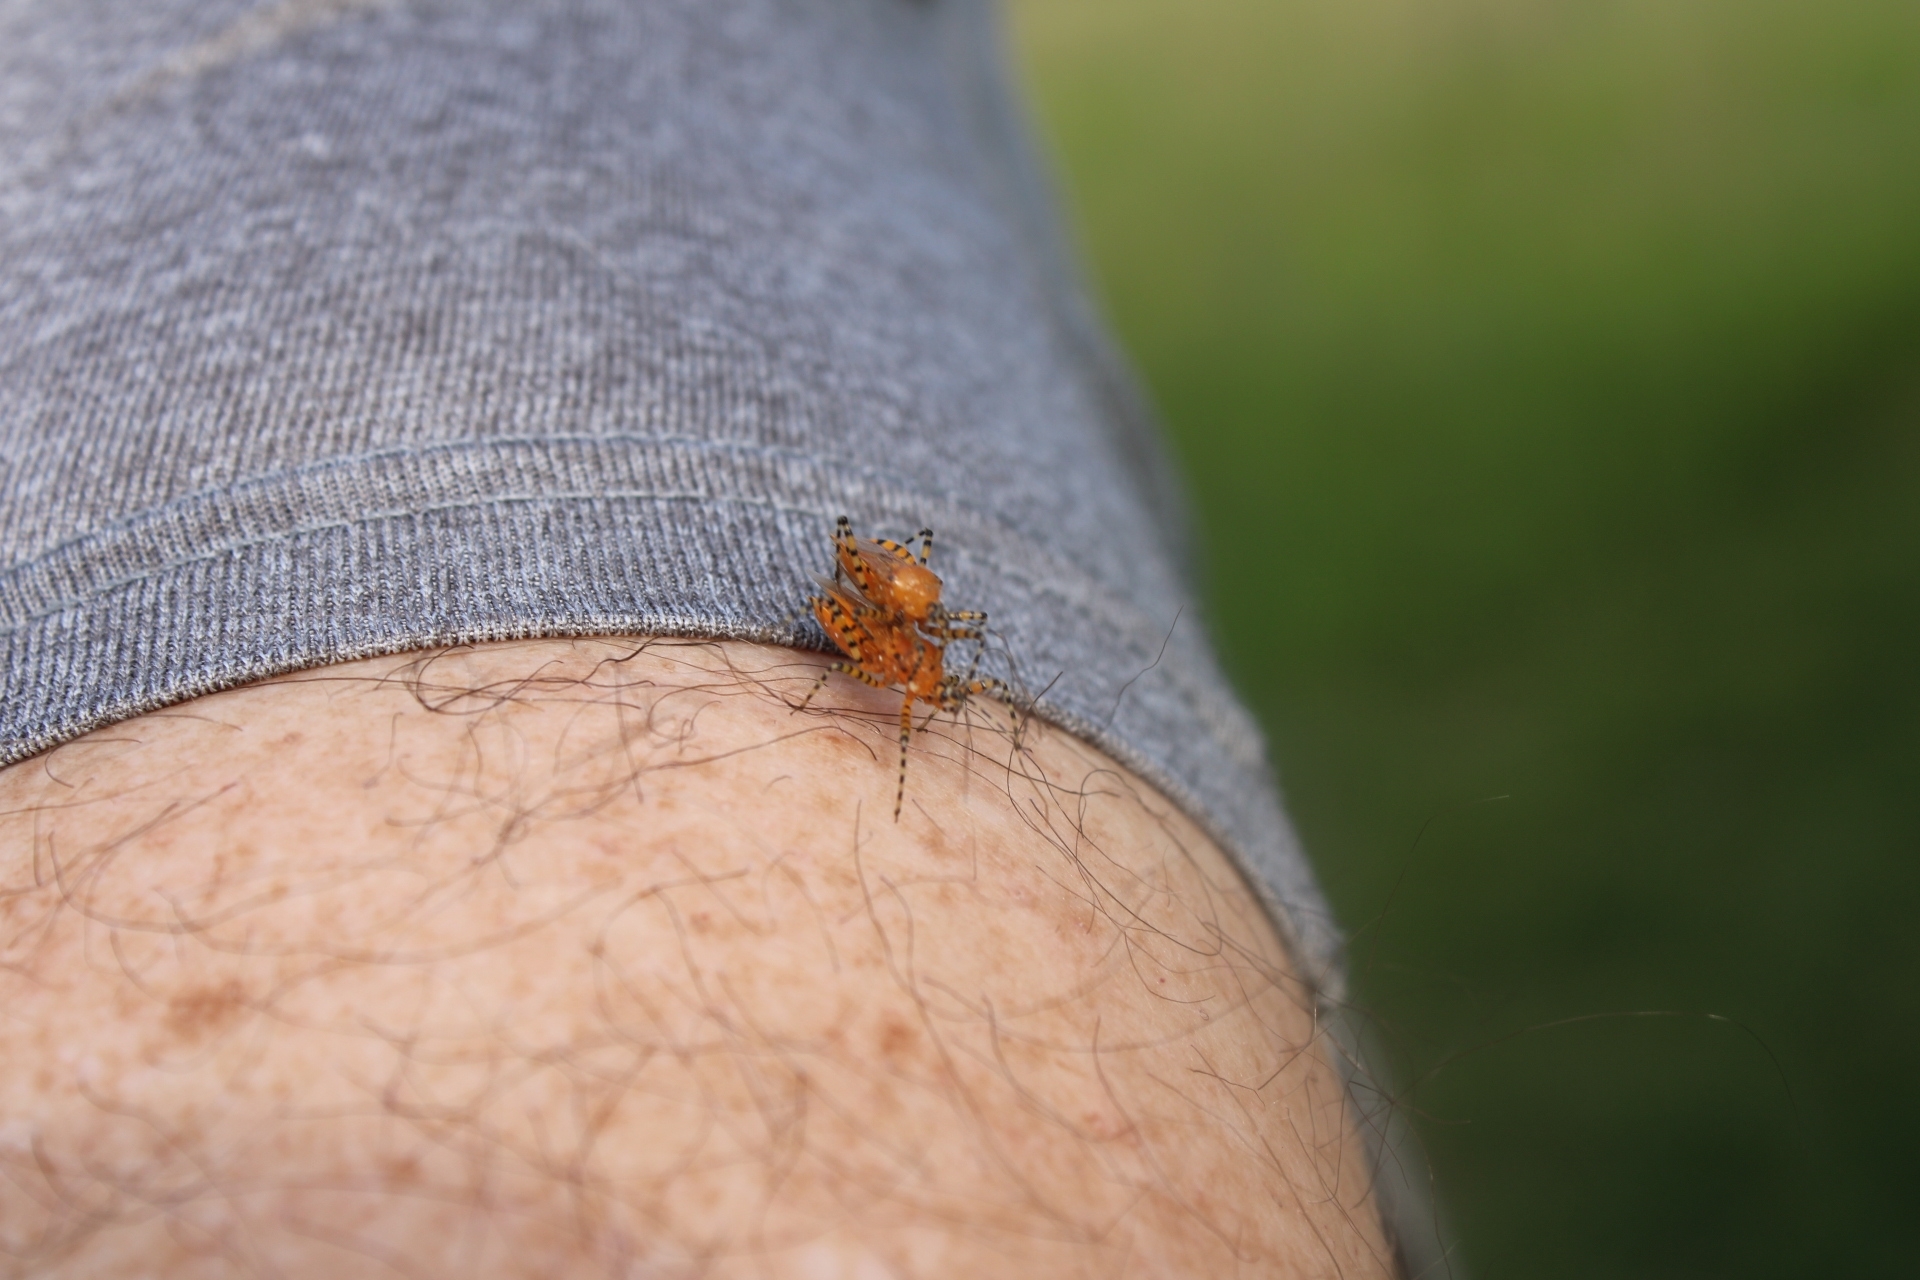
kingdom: Animalia
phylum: Arthropoda
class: Insecta
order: Hemiptera
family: Reduviidae
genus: Pselliopus
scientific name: Pselliopus barberi
